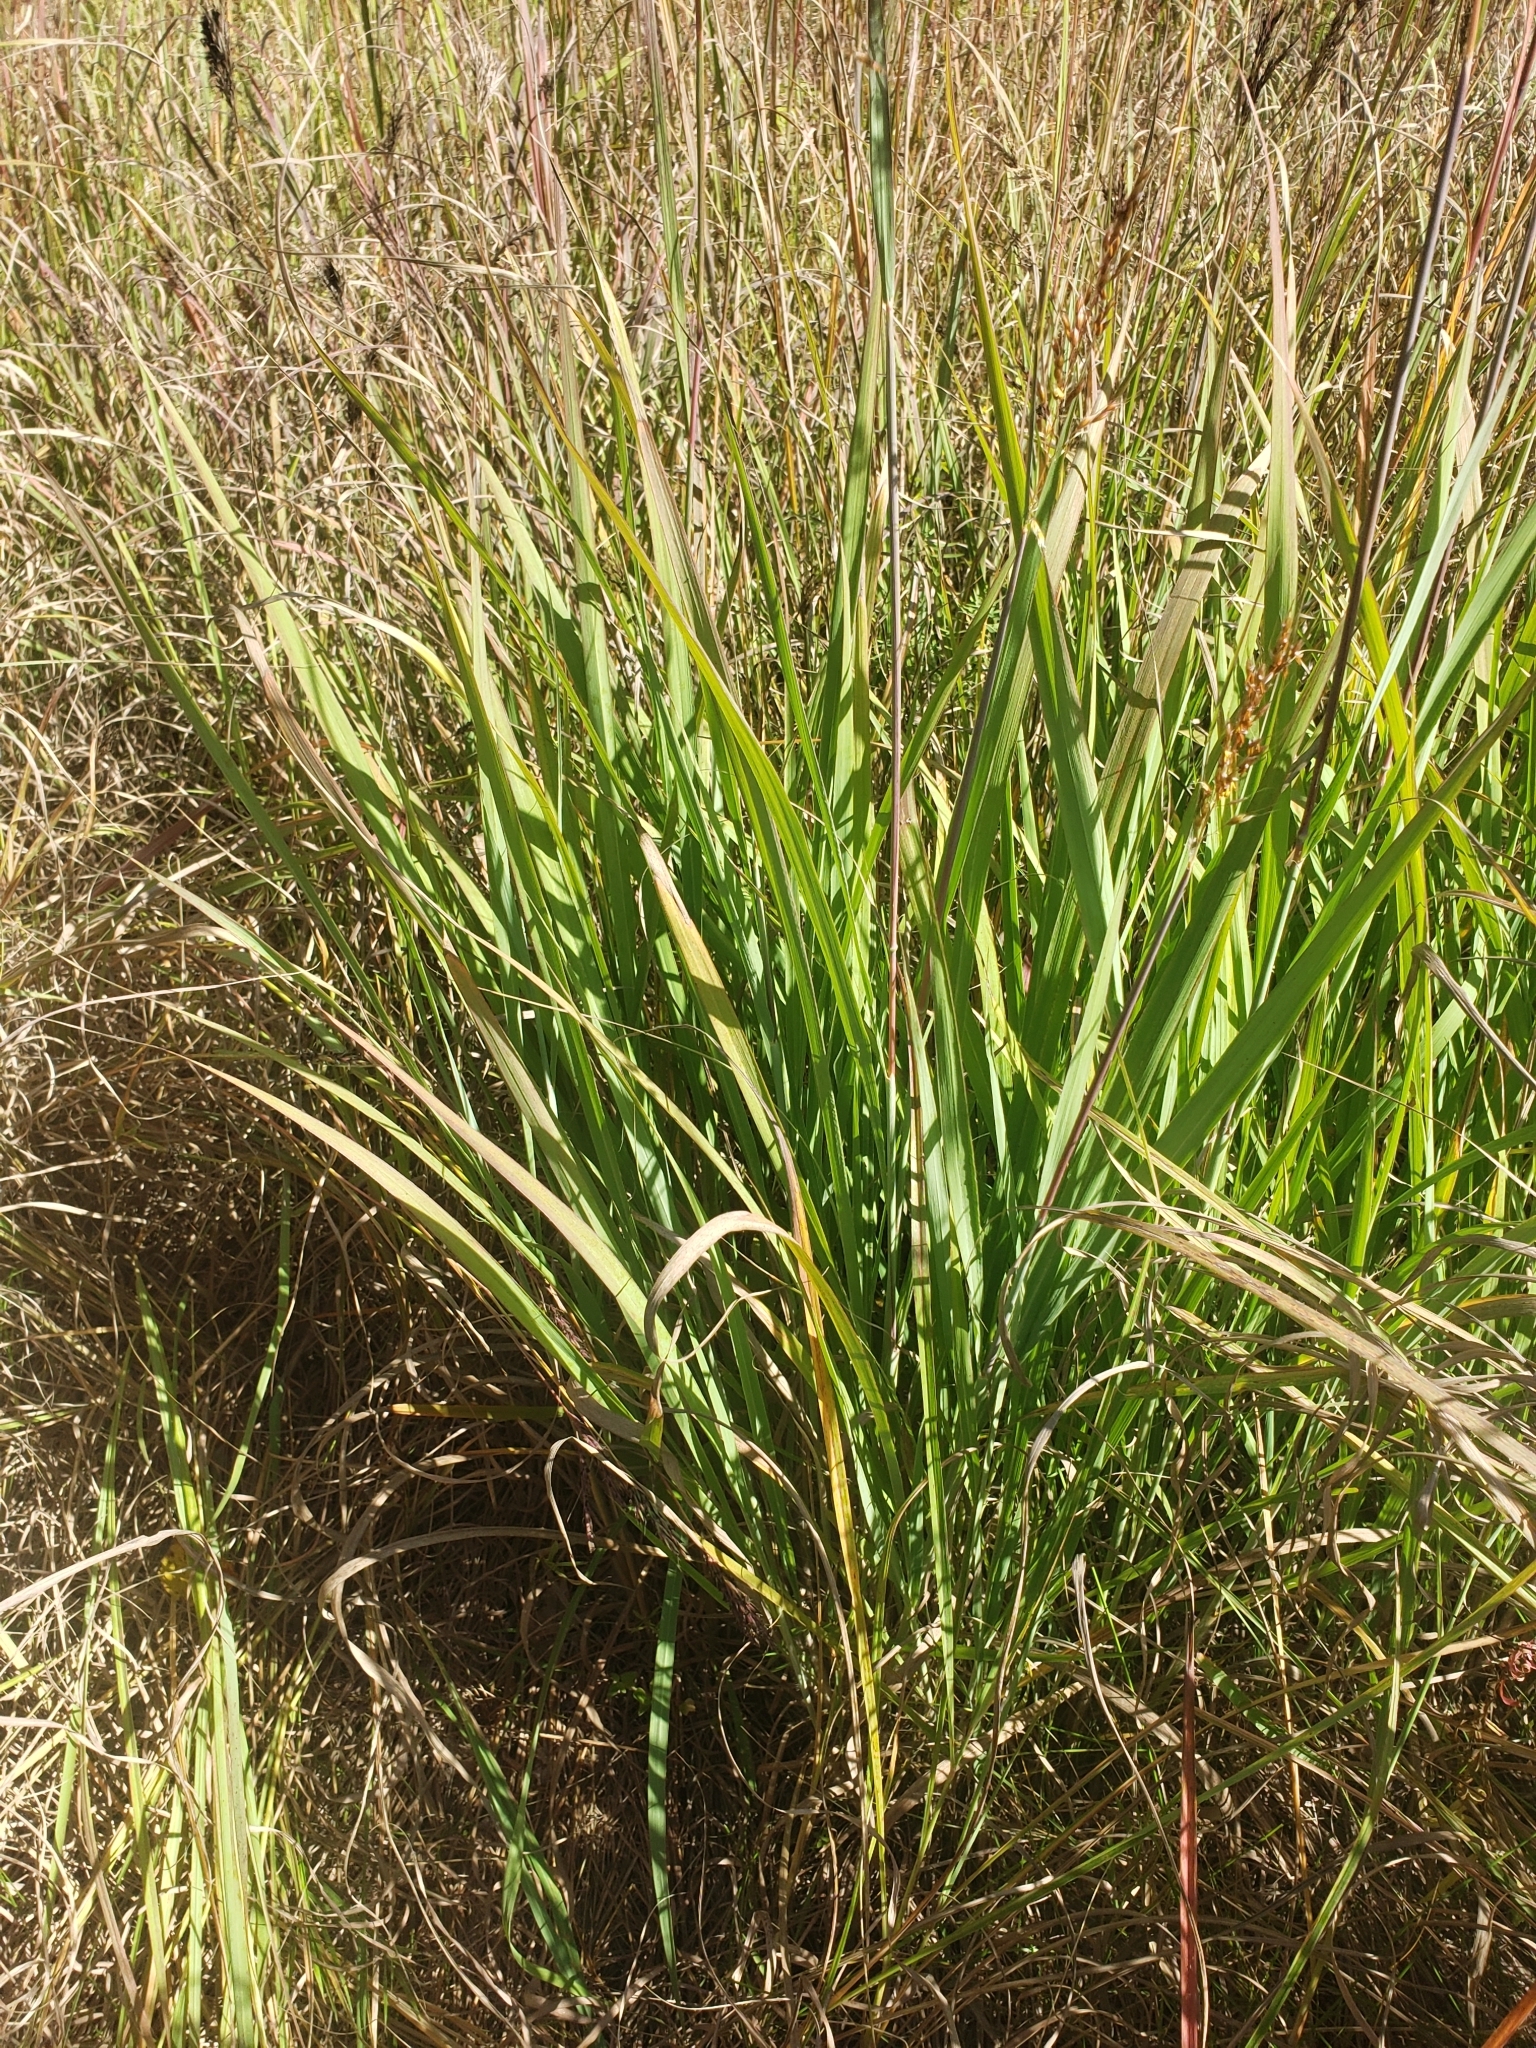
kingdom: Plantae
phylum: Tracheophyta
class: Liliopsida
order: Poales
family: Poaceae
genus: Sorghastrum
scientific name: Sorghastrum nutans
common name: Indian grass
